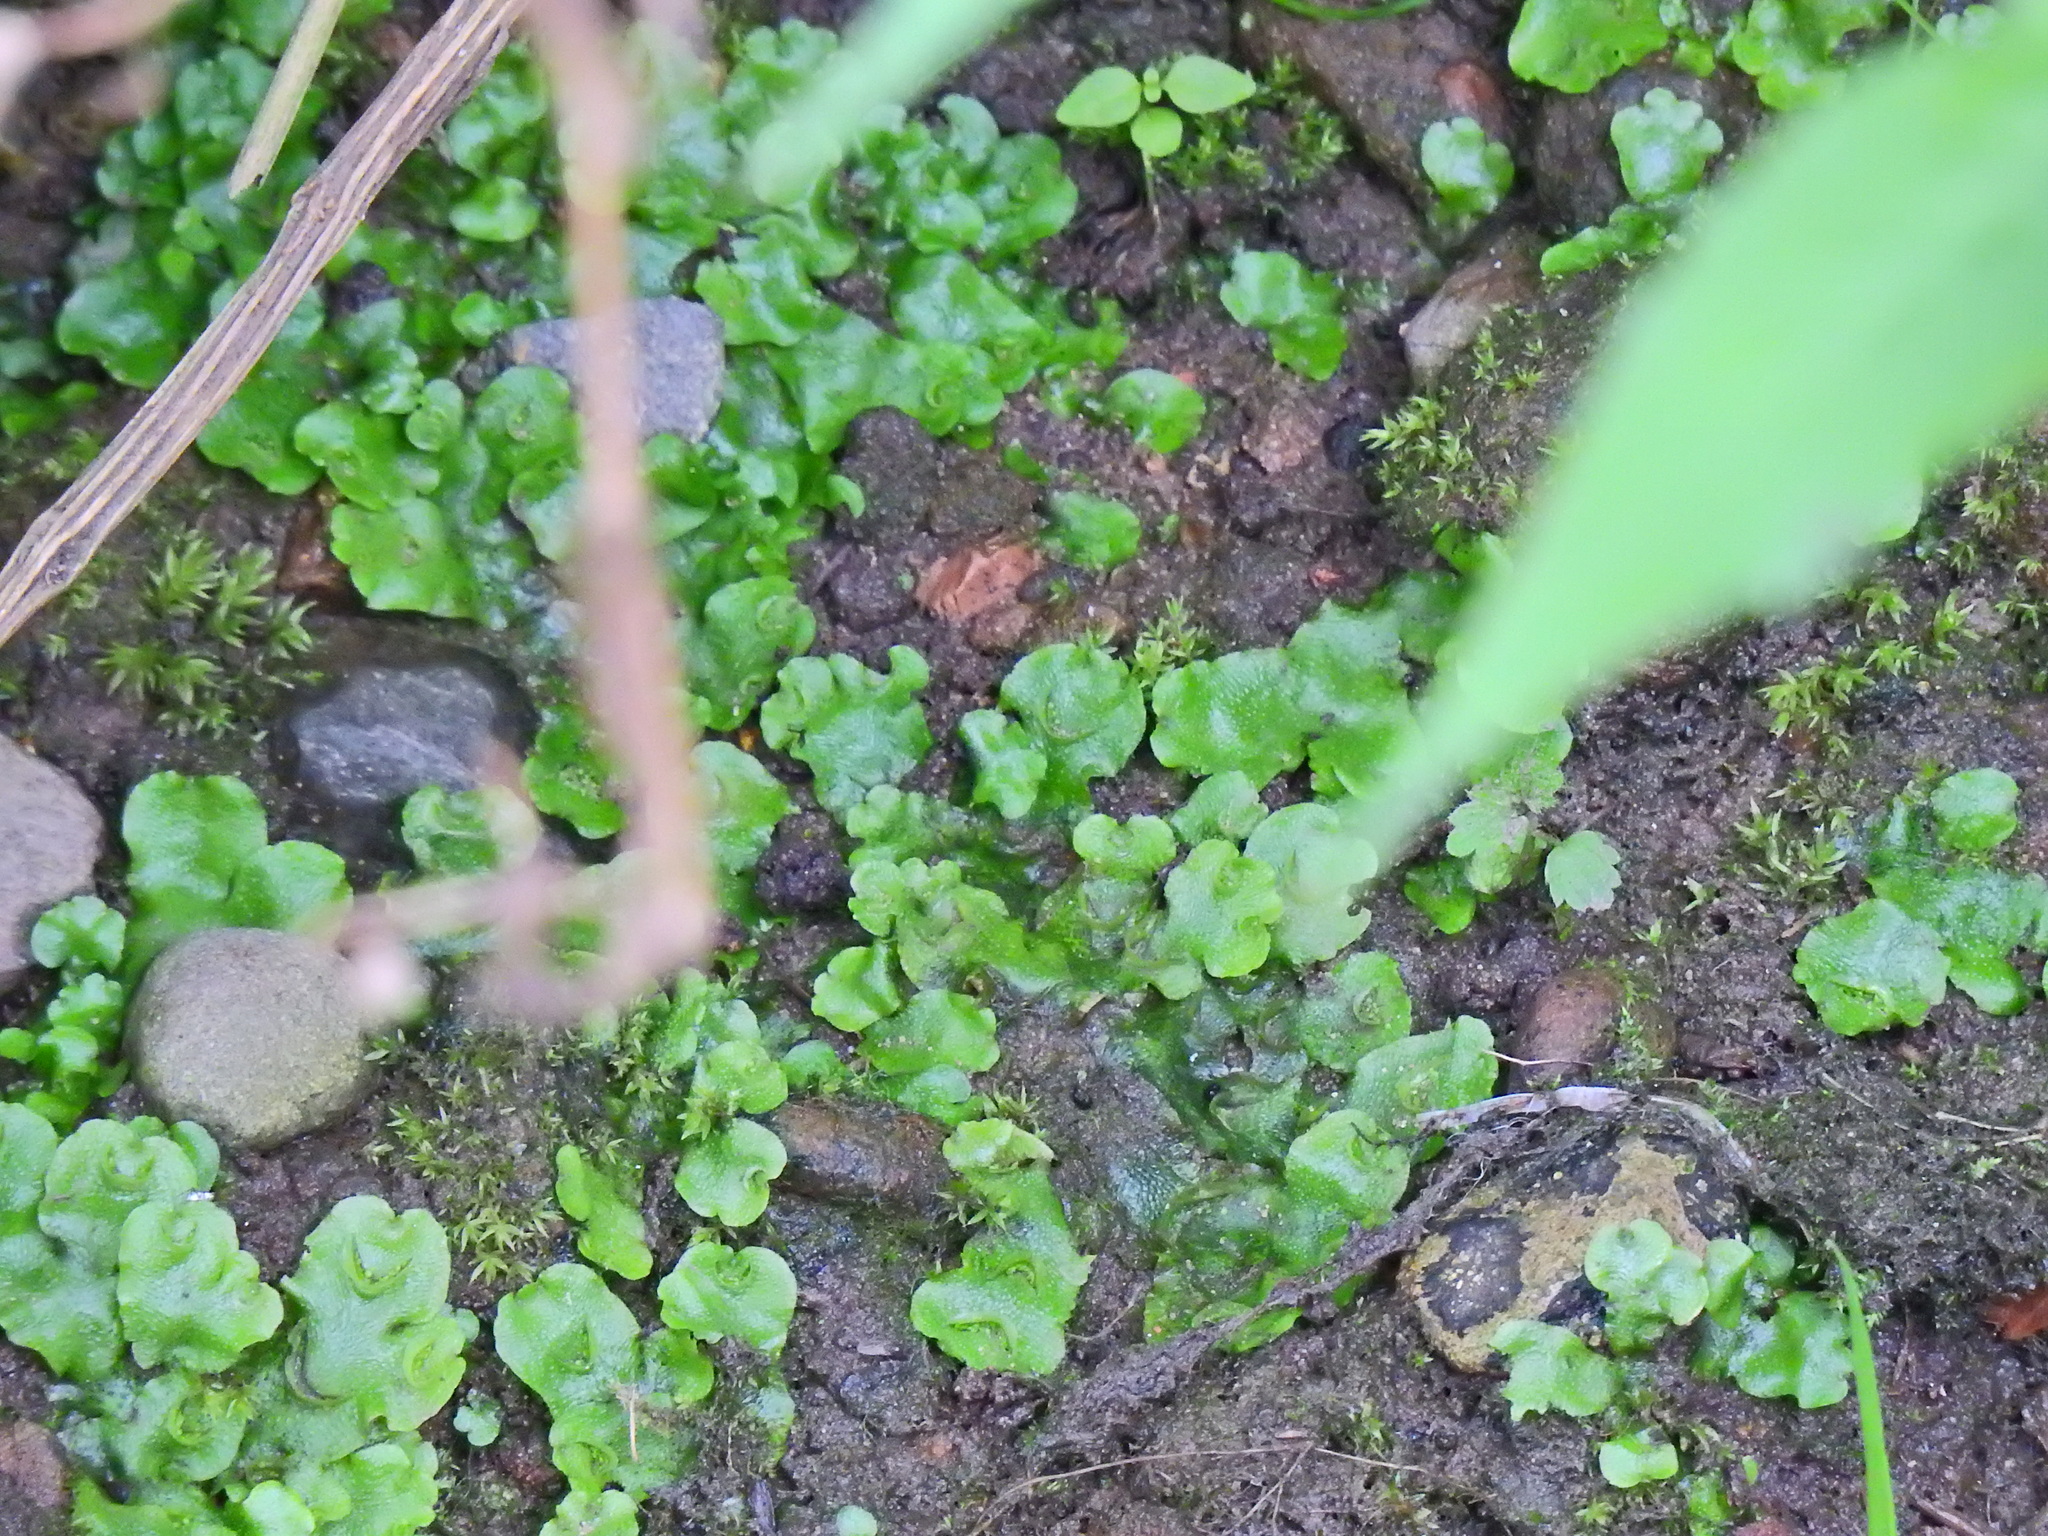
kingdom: Plantae
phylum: Marchantiophyta
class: Marchantiopsida
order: Lunulariales
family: Lunulariaceae
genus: Lunularia
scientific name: Lunularia cruciata
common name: Crescent-cup liverwort
